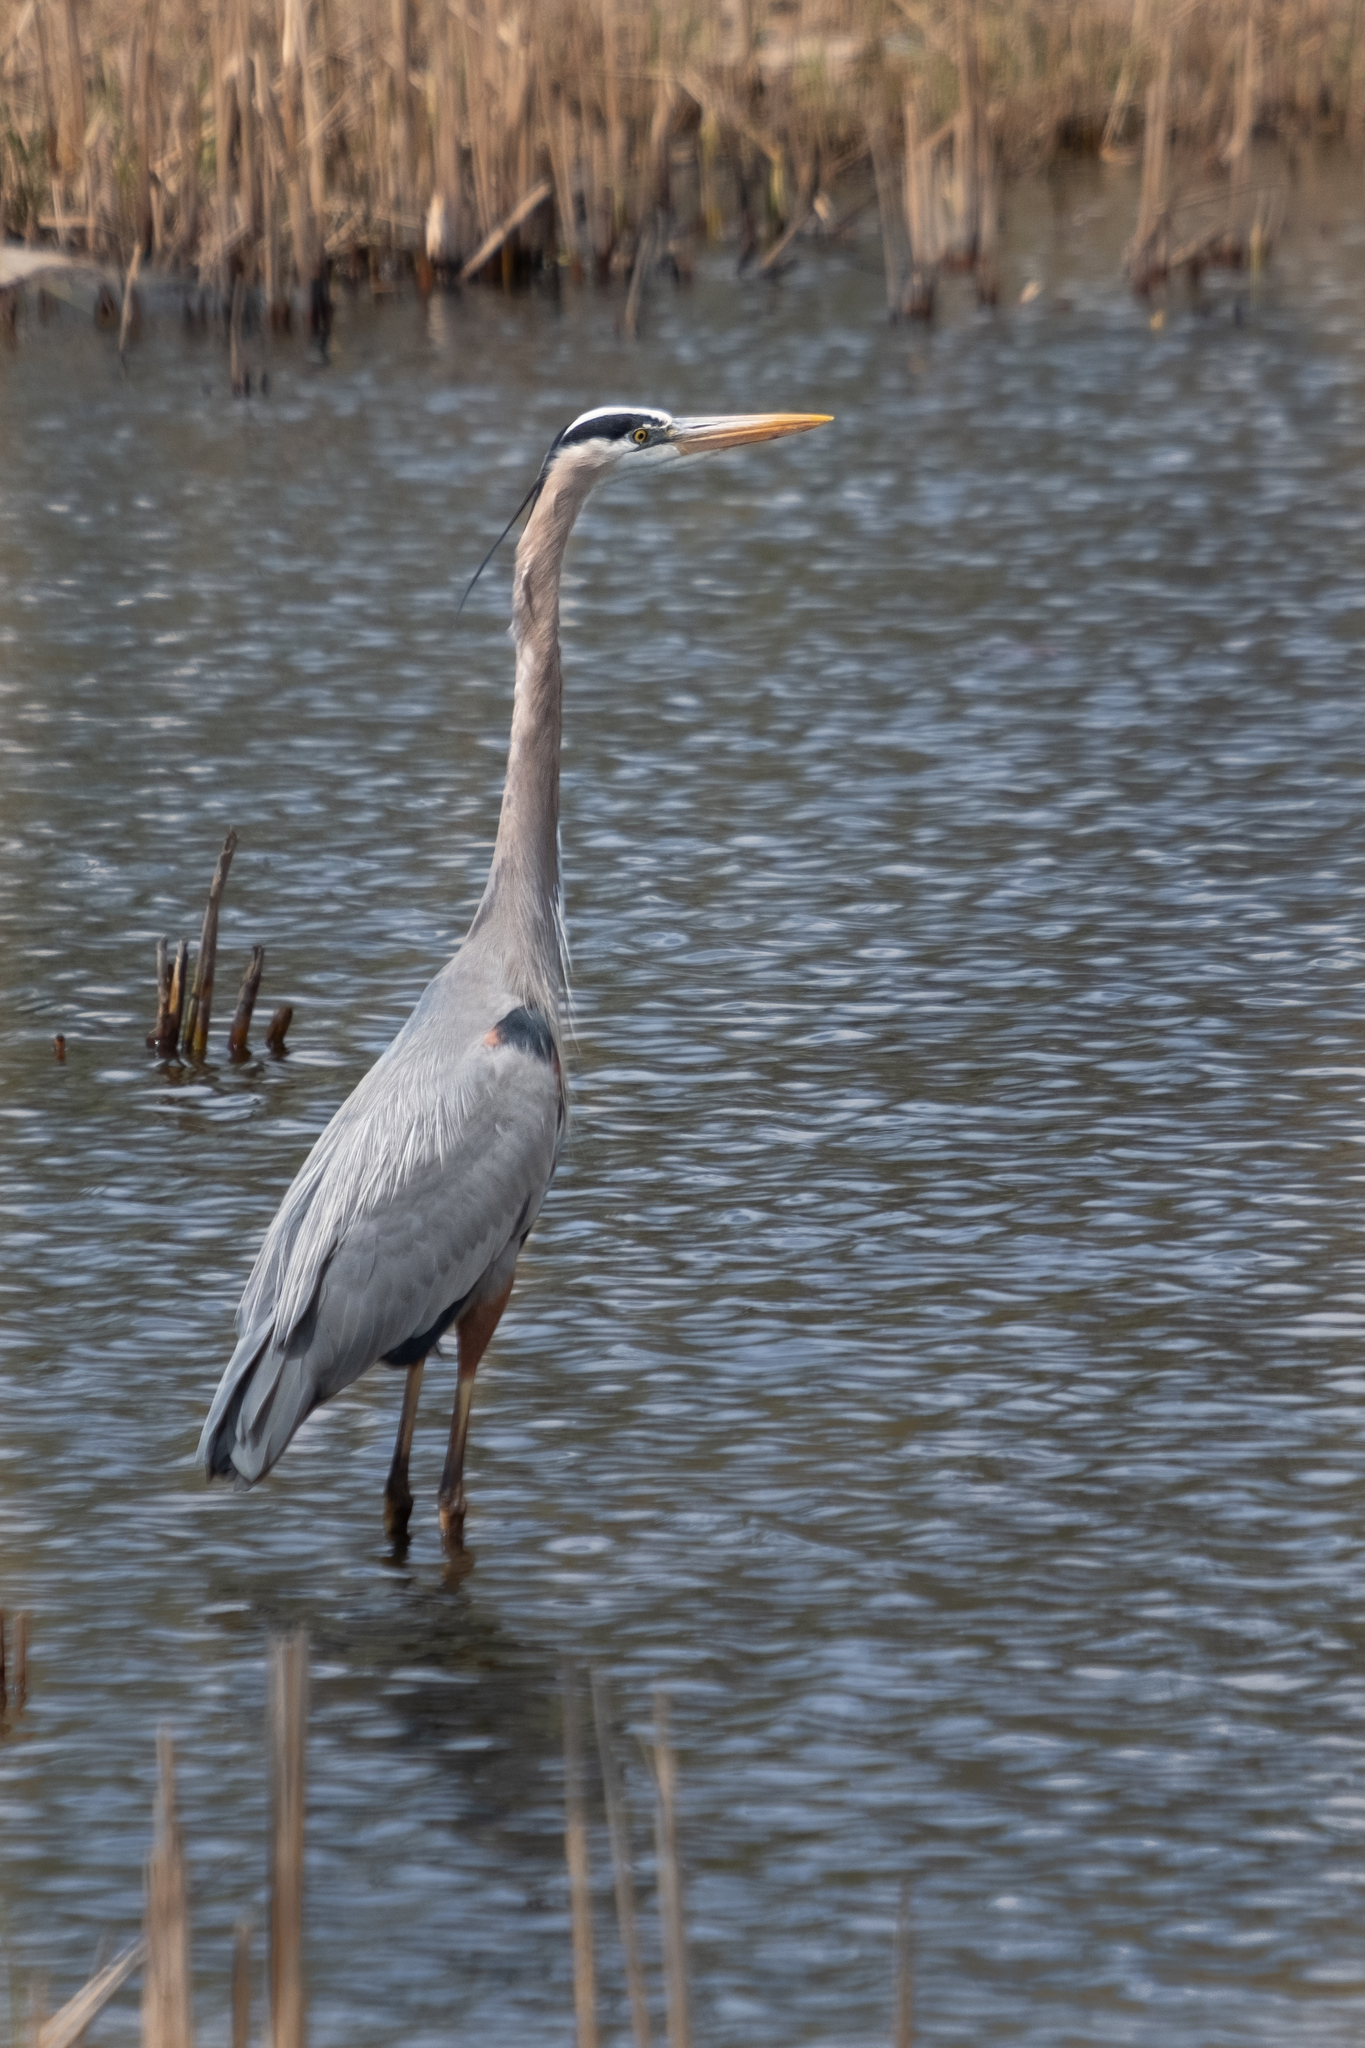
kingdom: Animalia
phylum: Chordata
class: Aves
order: Pelecaniformes
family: Ardeidae
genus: Ardea
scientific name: Ardea herodias
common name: Great blue heron
